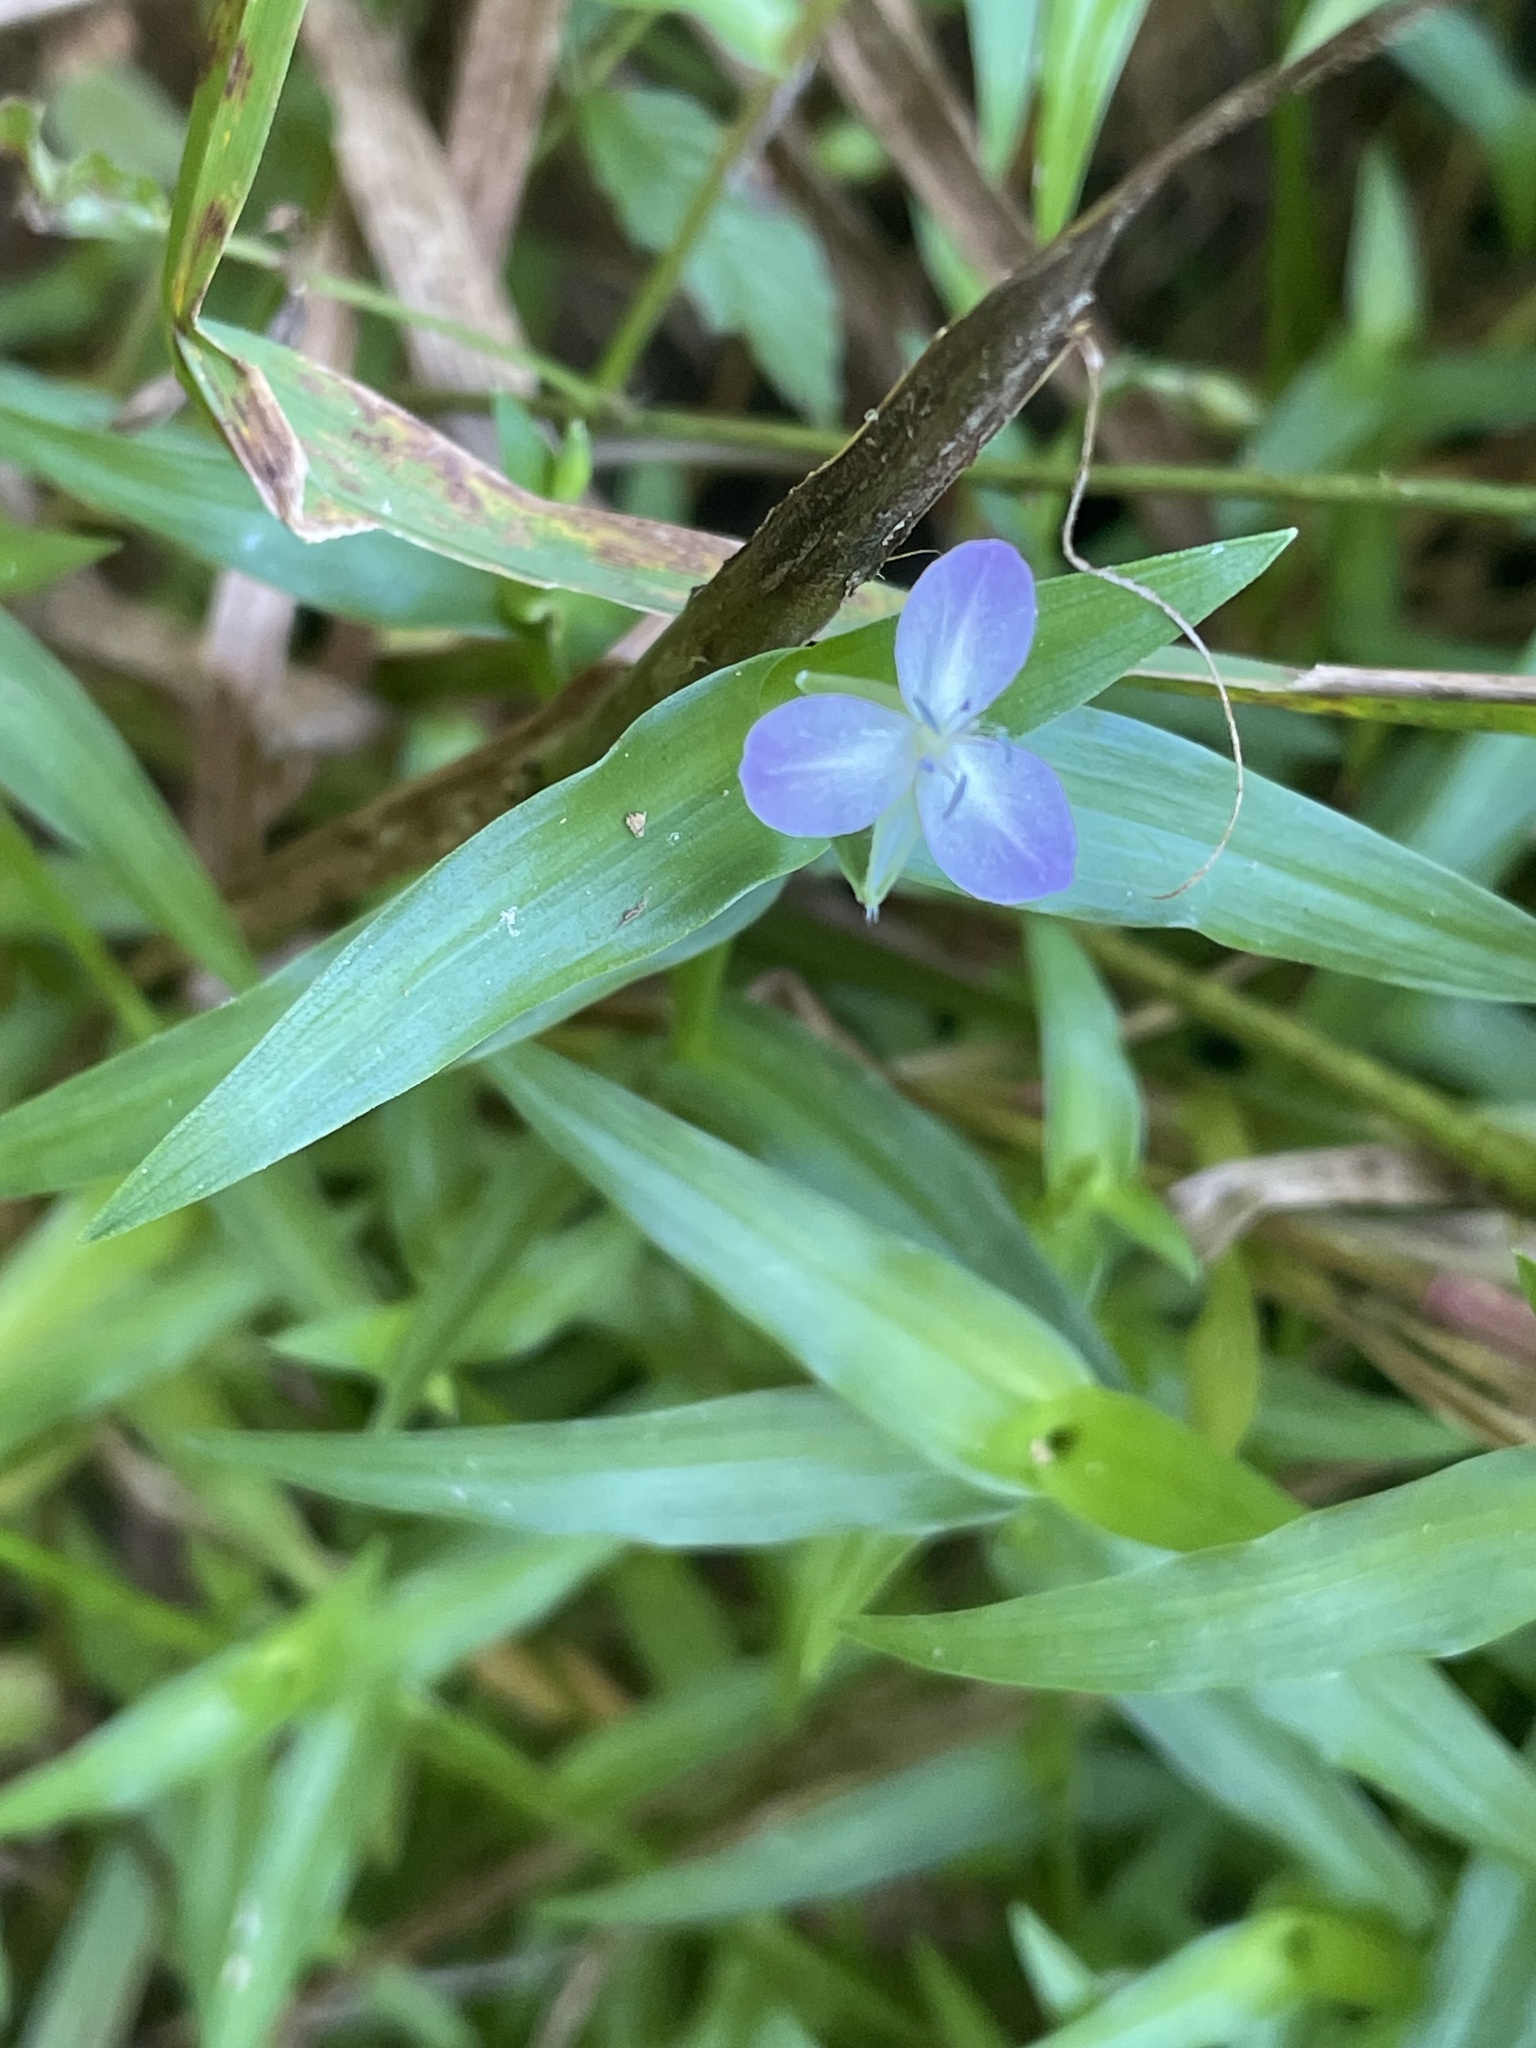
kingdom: Plantae
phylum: Tracheophyta
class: Liliopsida
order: Commelinales
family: Commelinaceae
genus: Murdannia
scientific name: Murdannia keisak
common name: Wartremoving herb
